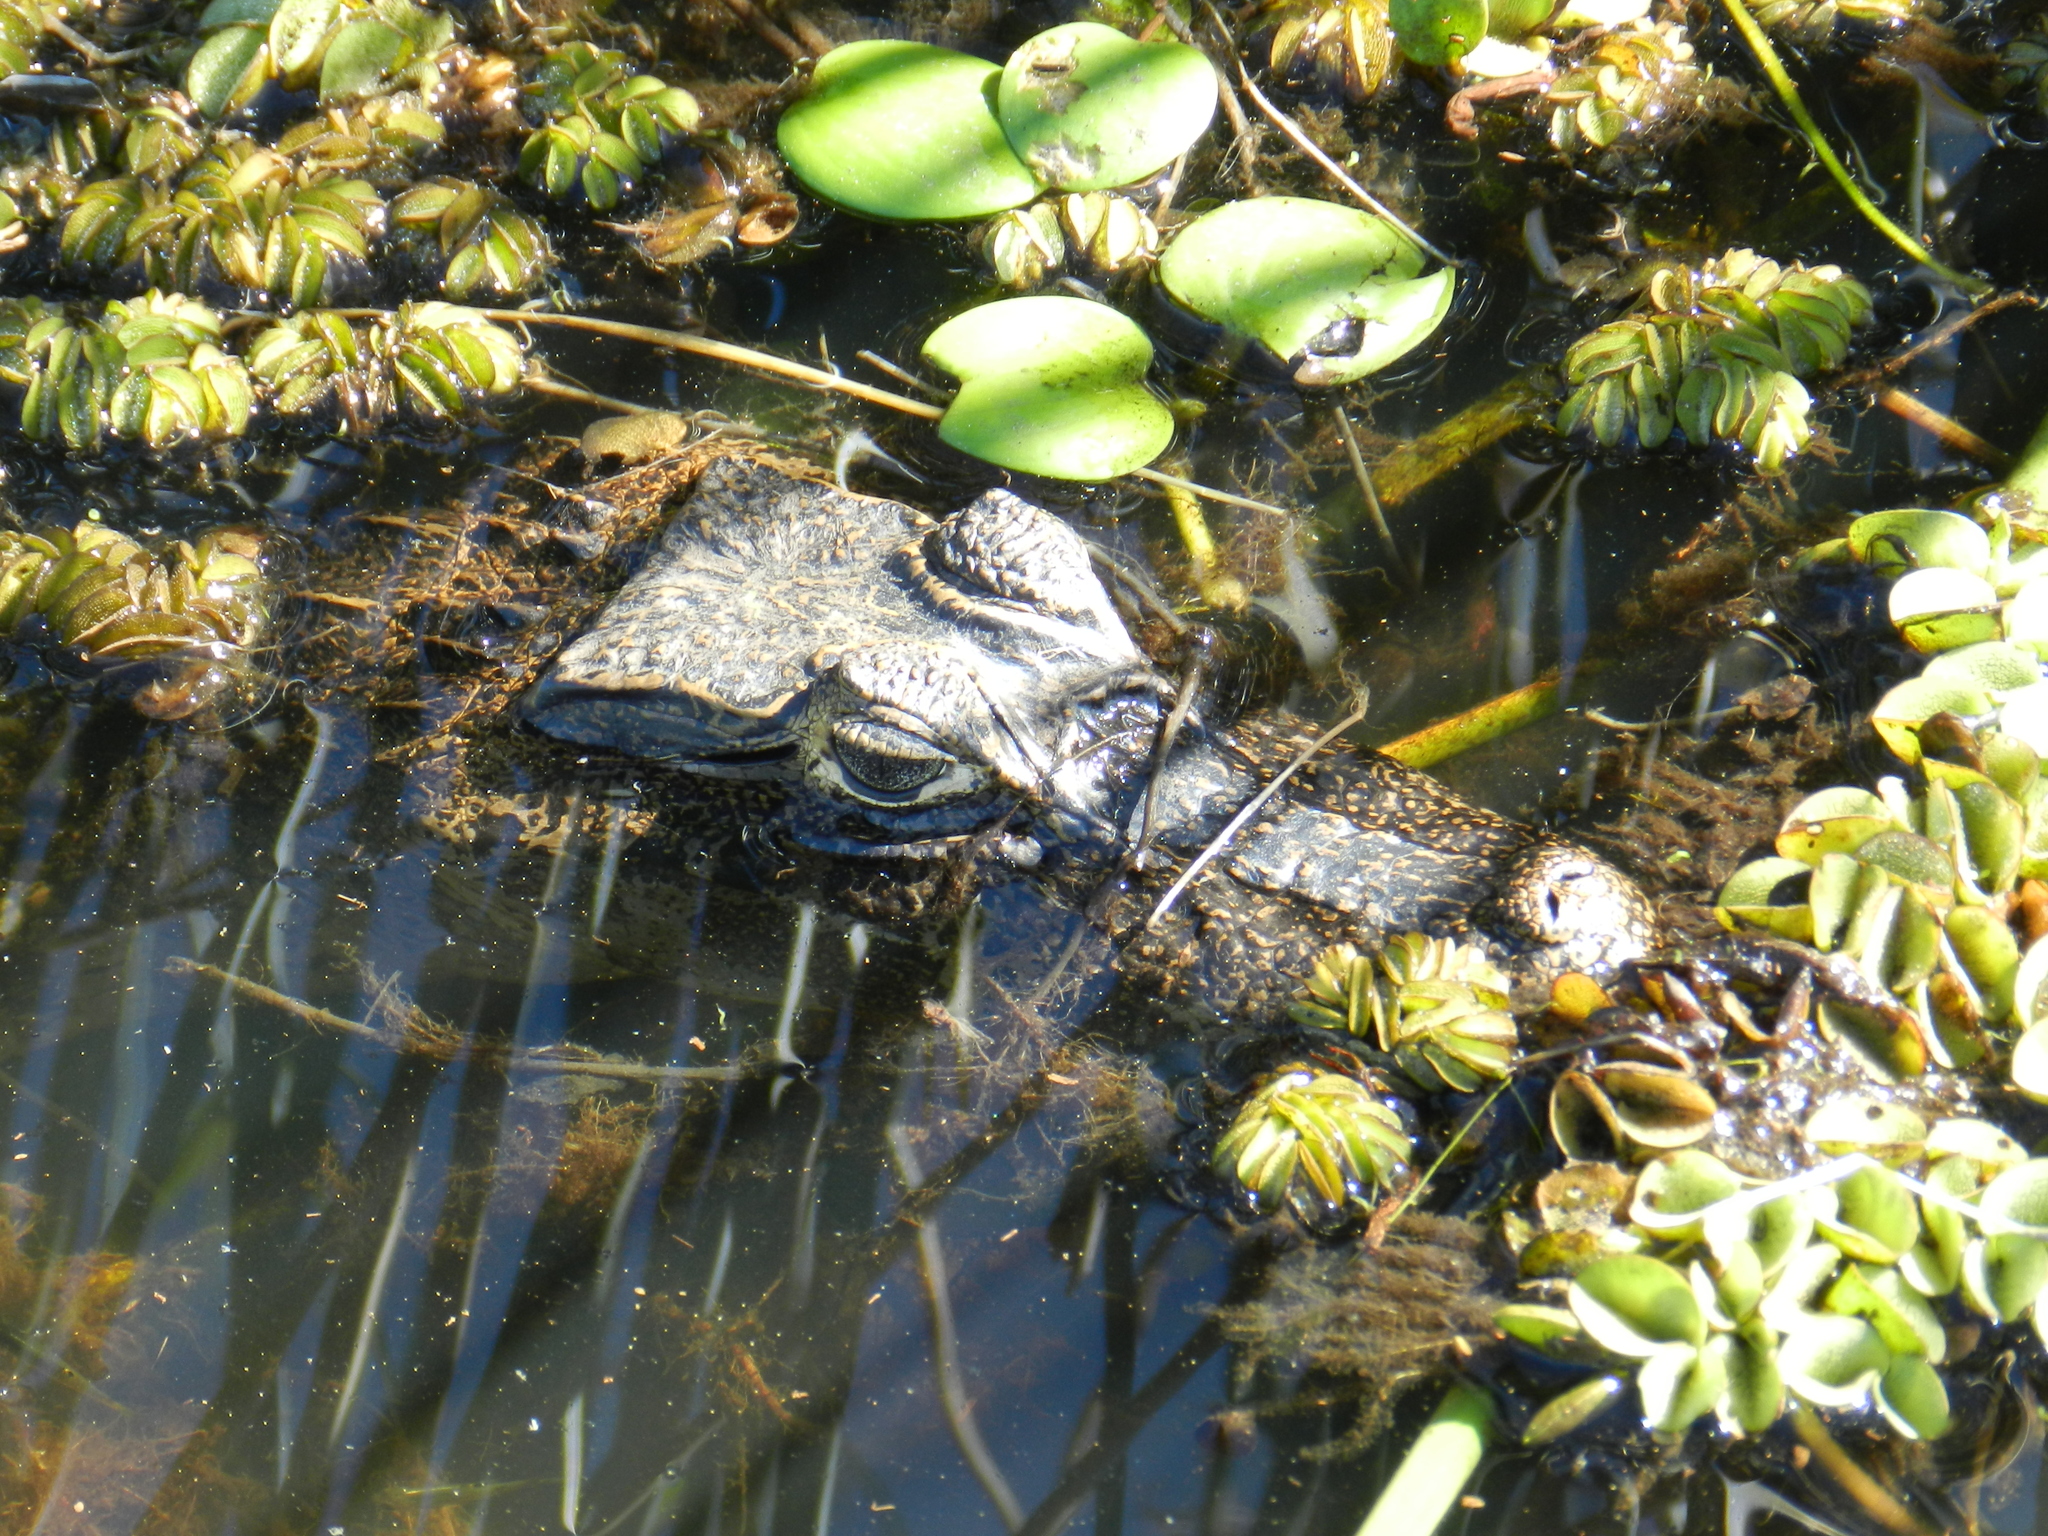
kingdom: Animalia
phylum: Chordata
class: Crocodylia
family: Alligatoridae
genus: Caiman
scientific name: Caiman yacare
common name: Yacare caiman
